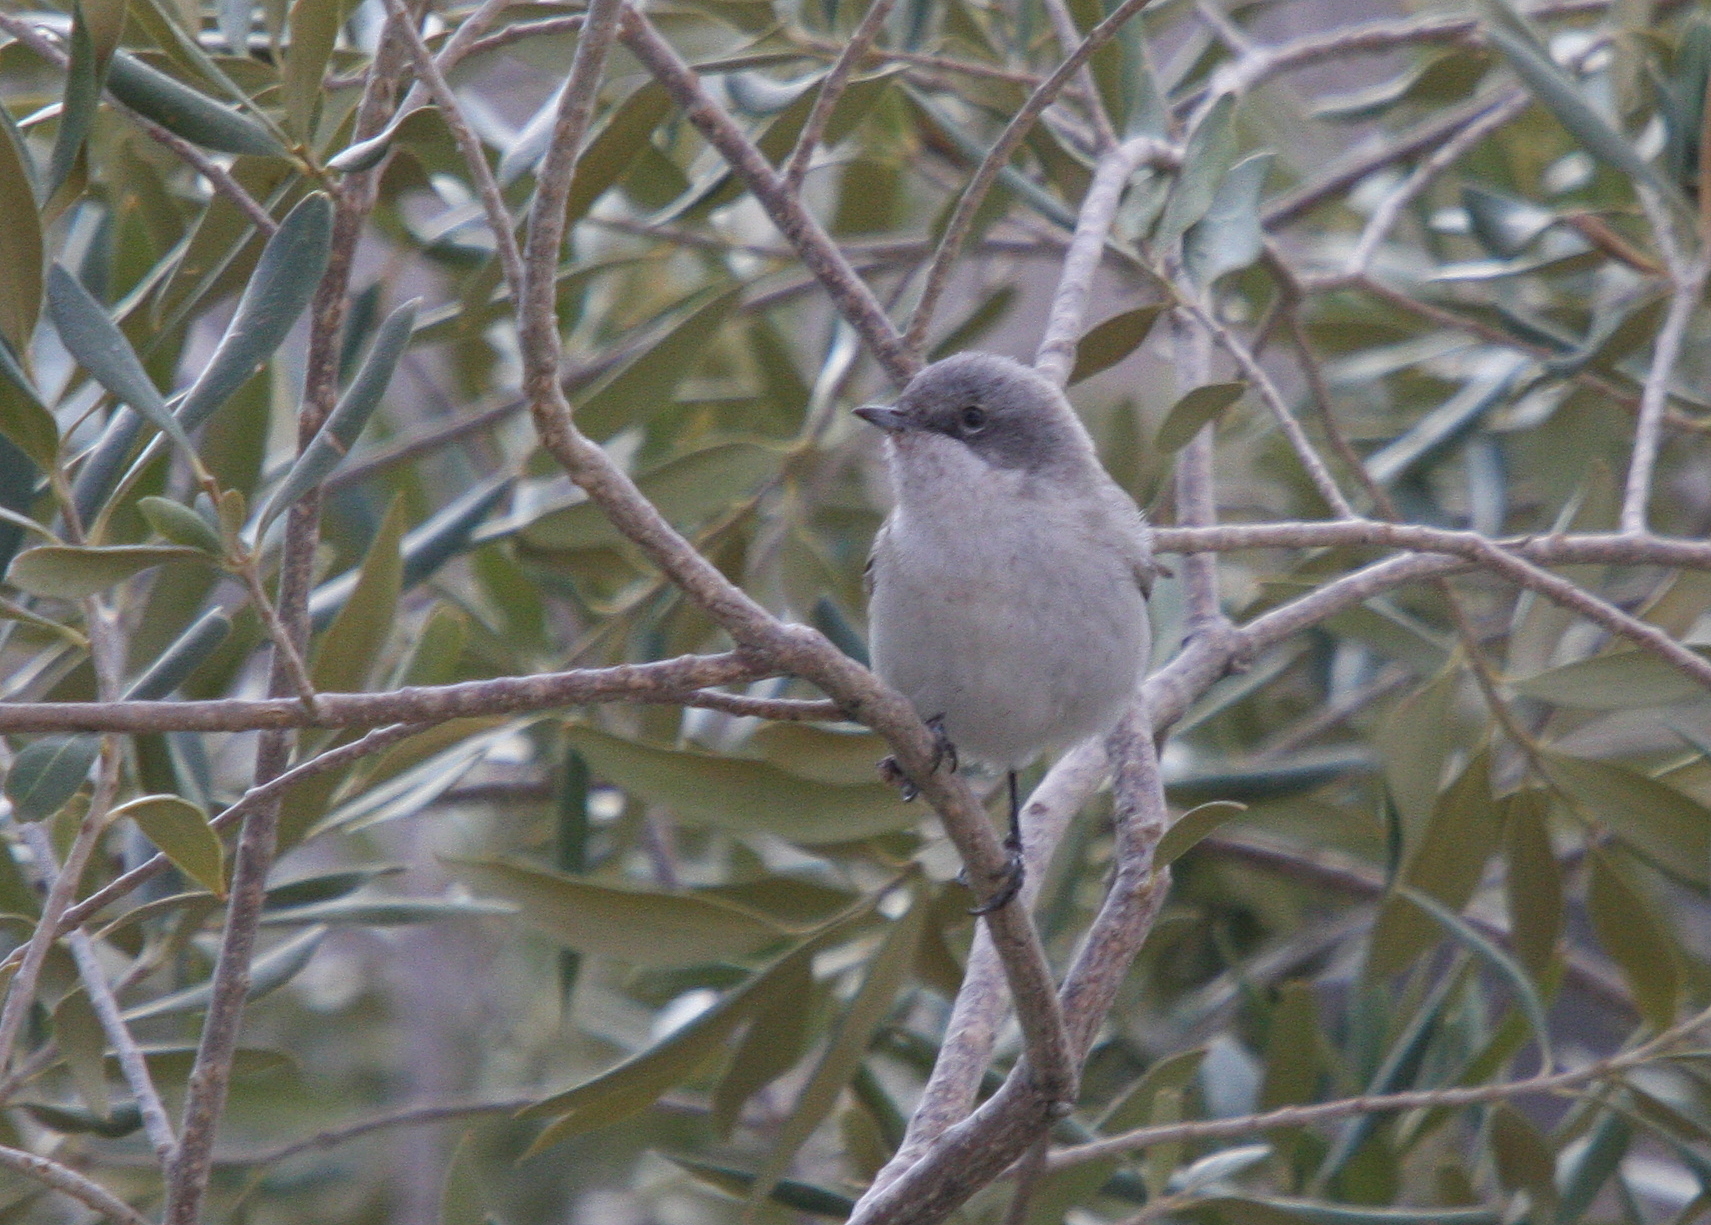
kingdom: Animalia
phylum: Chordata
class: Aves
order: Passeriformes
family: Sylviidae
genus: Sylvia
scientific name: Sylvia curruca
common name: Lesser whitethroat
